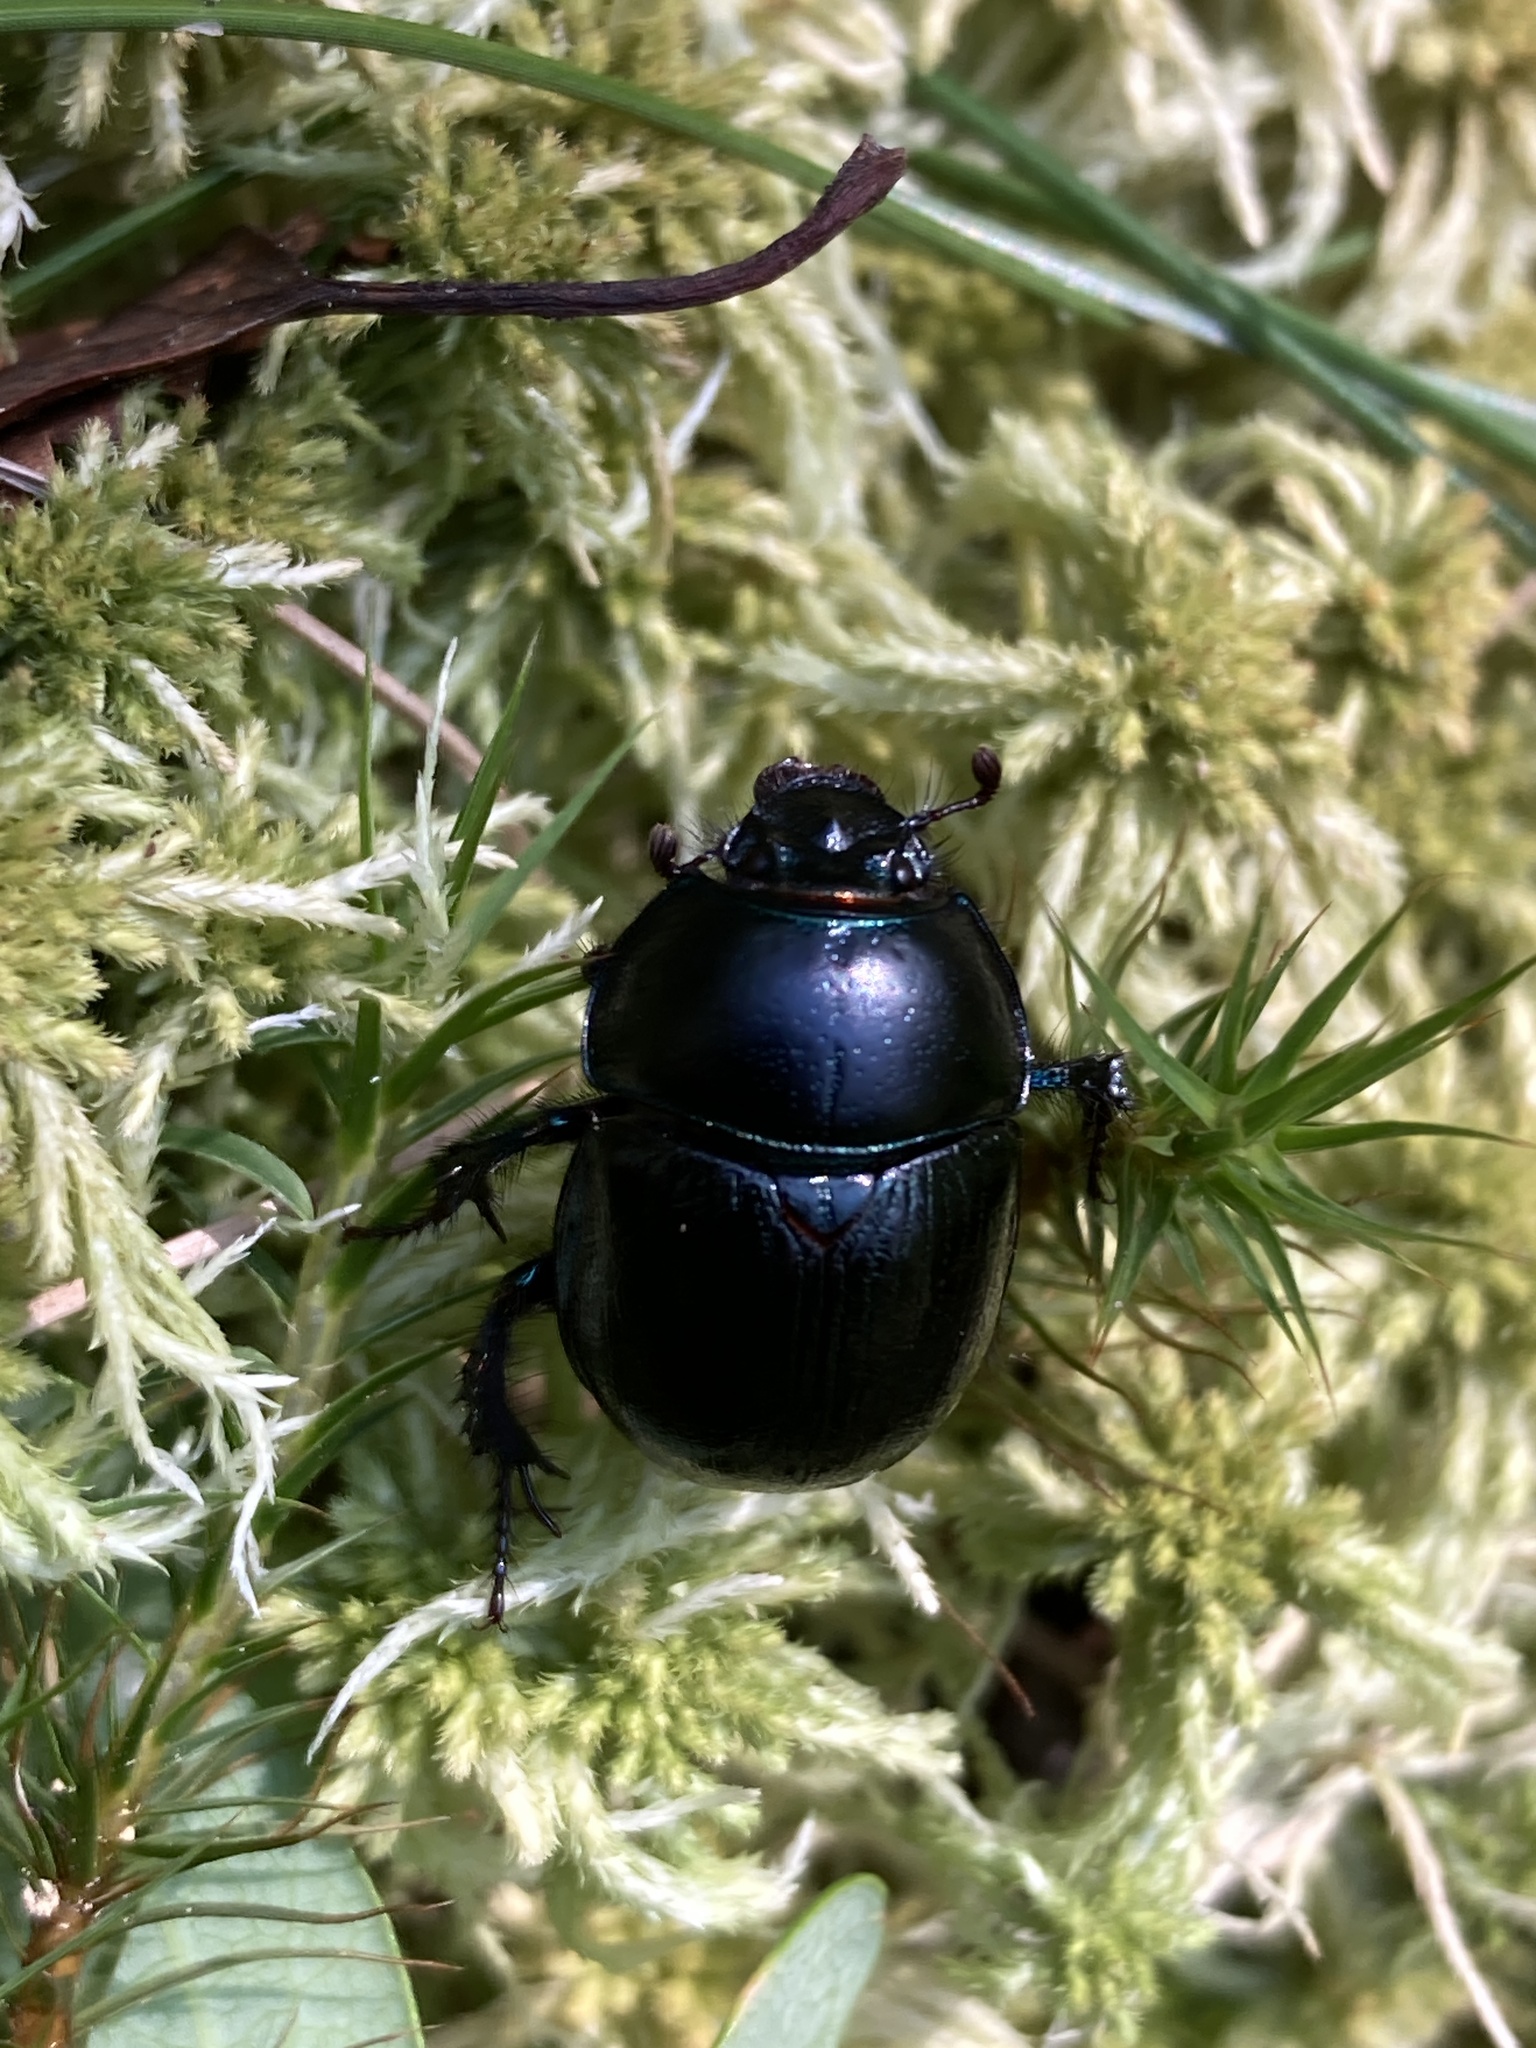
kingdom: Animalia
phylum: Arthropoda
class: Insecta
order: Coleoptera
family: Geotrupidae
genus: Anoplotrupes
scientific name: Anoplotrupes stercorosus
